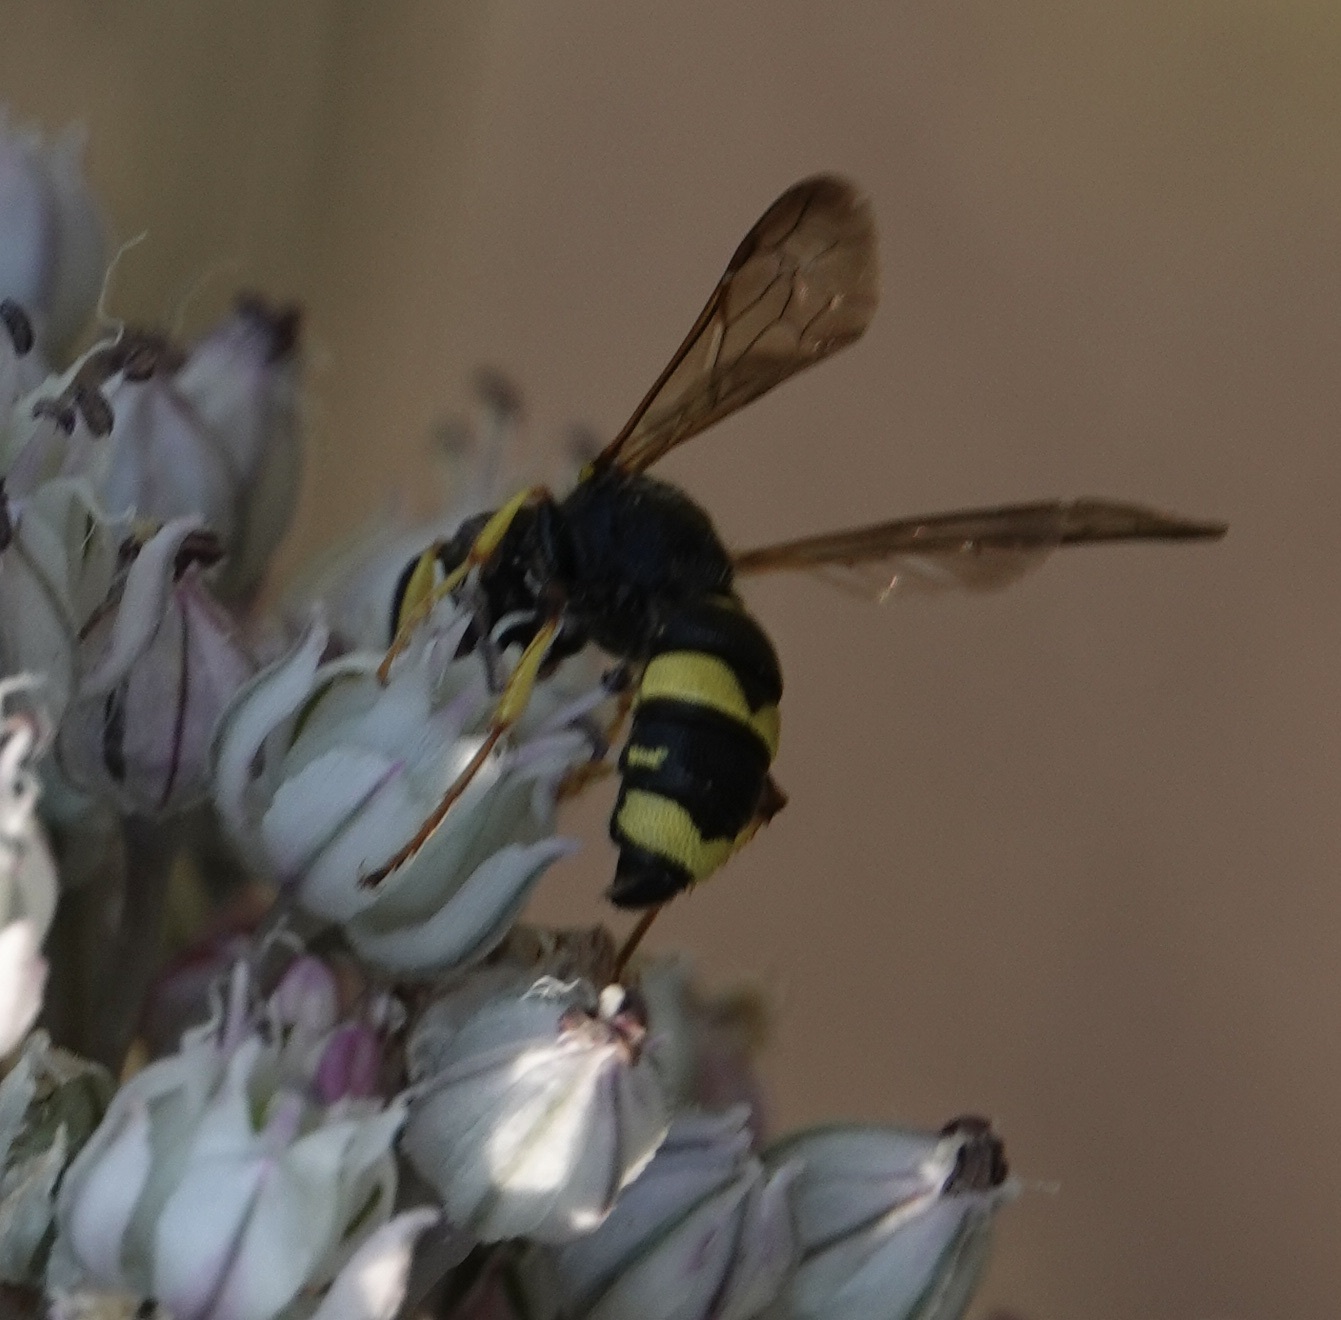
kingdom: Animalia
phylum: Arthropoda
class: Insecta
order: Hymenoptera
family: Crabronidae
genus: Cerceris
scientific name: Cerceris rybyensis
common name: Ornate tailed digger wasp
